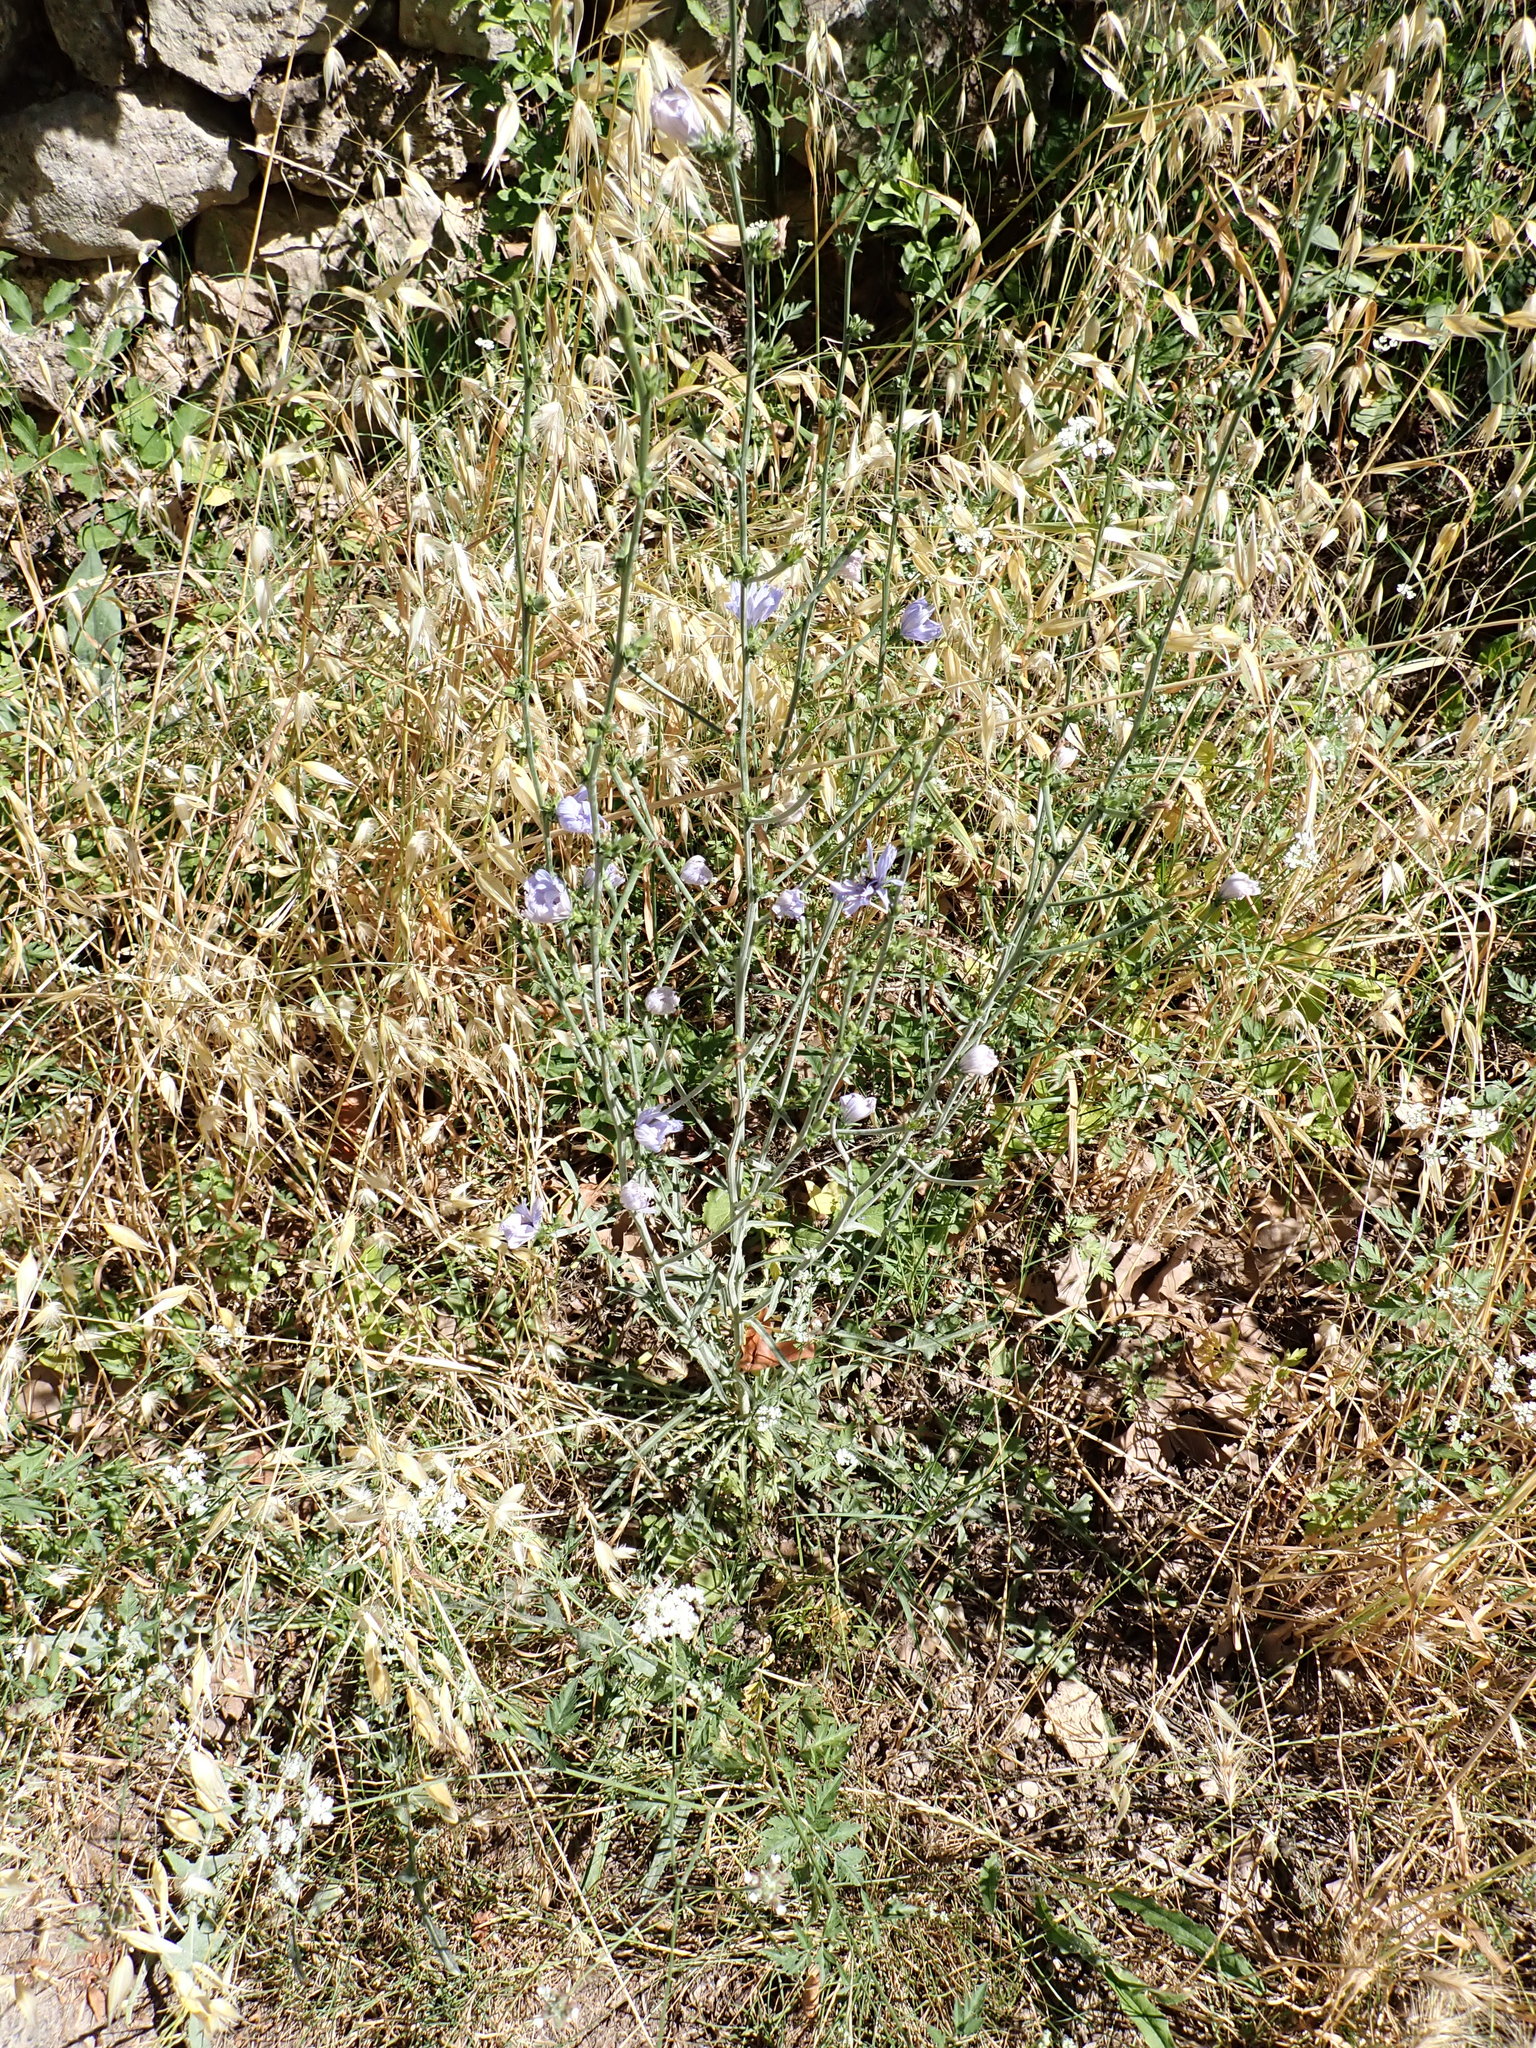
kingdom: Plantae
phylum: Tracheophyta
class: Magnoliopsida
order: Asterales
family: Asteraceae
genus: Cichorium
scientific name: Cichorium intybus
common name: Chicory
